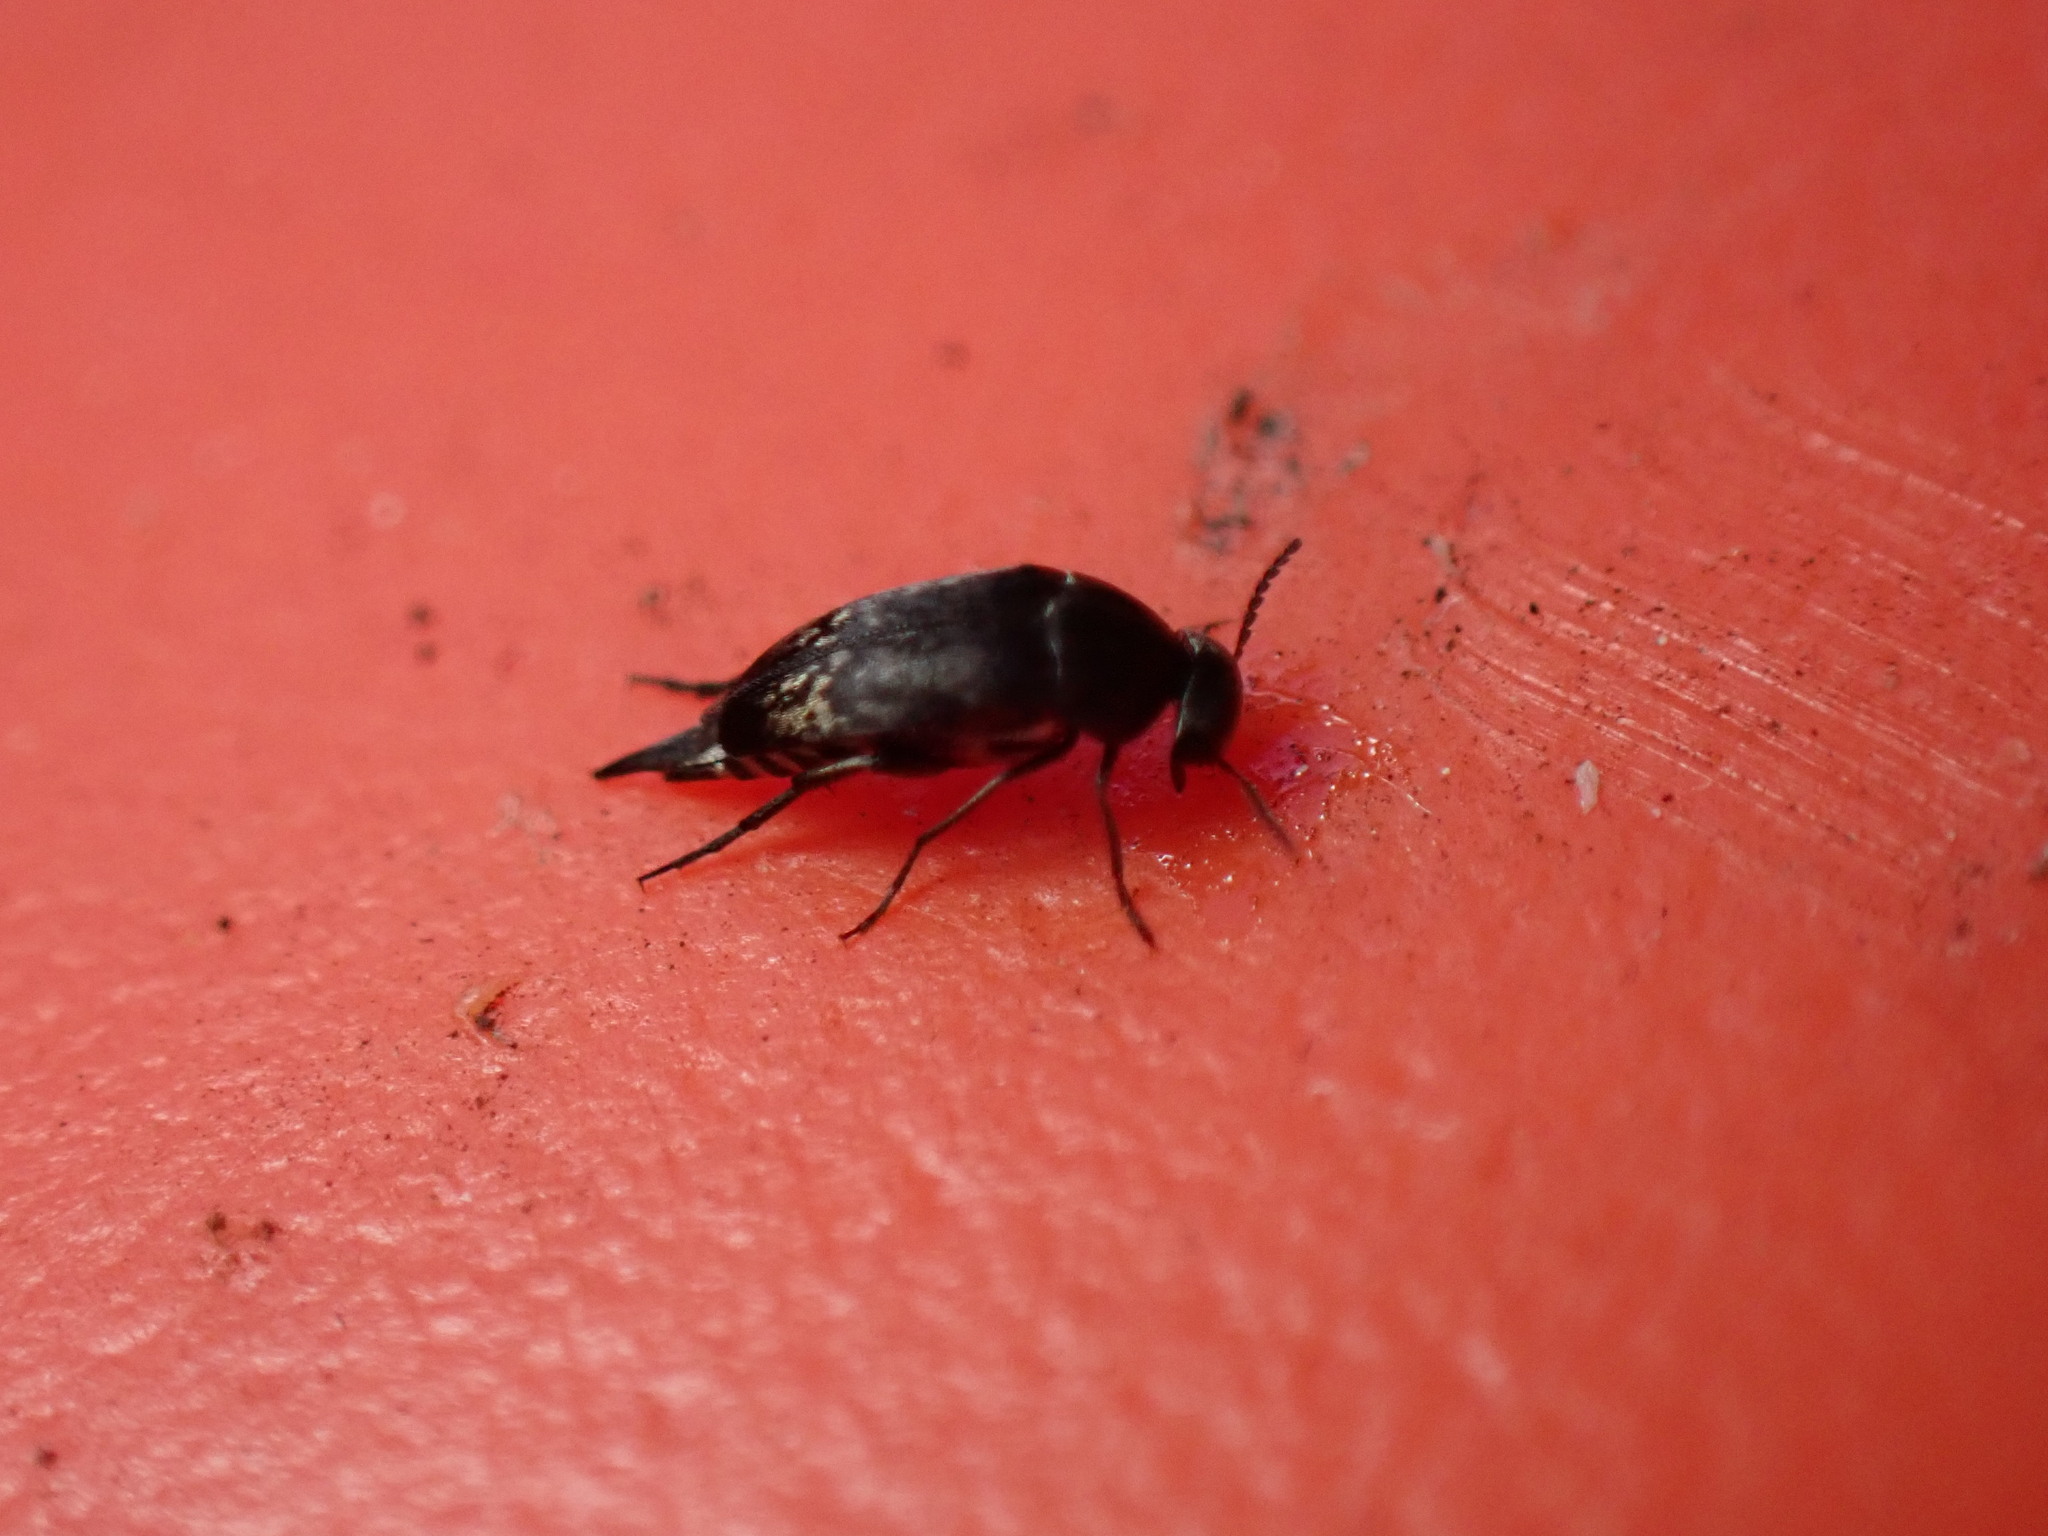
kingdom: Animalia
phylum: Arthropoda
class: Insecta
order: Coleoptera
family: Mordellidae
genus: Mordella
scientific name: Mordella marginata
